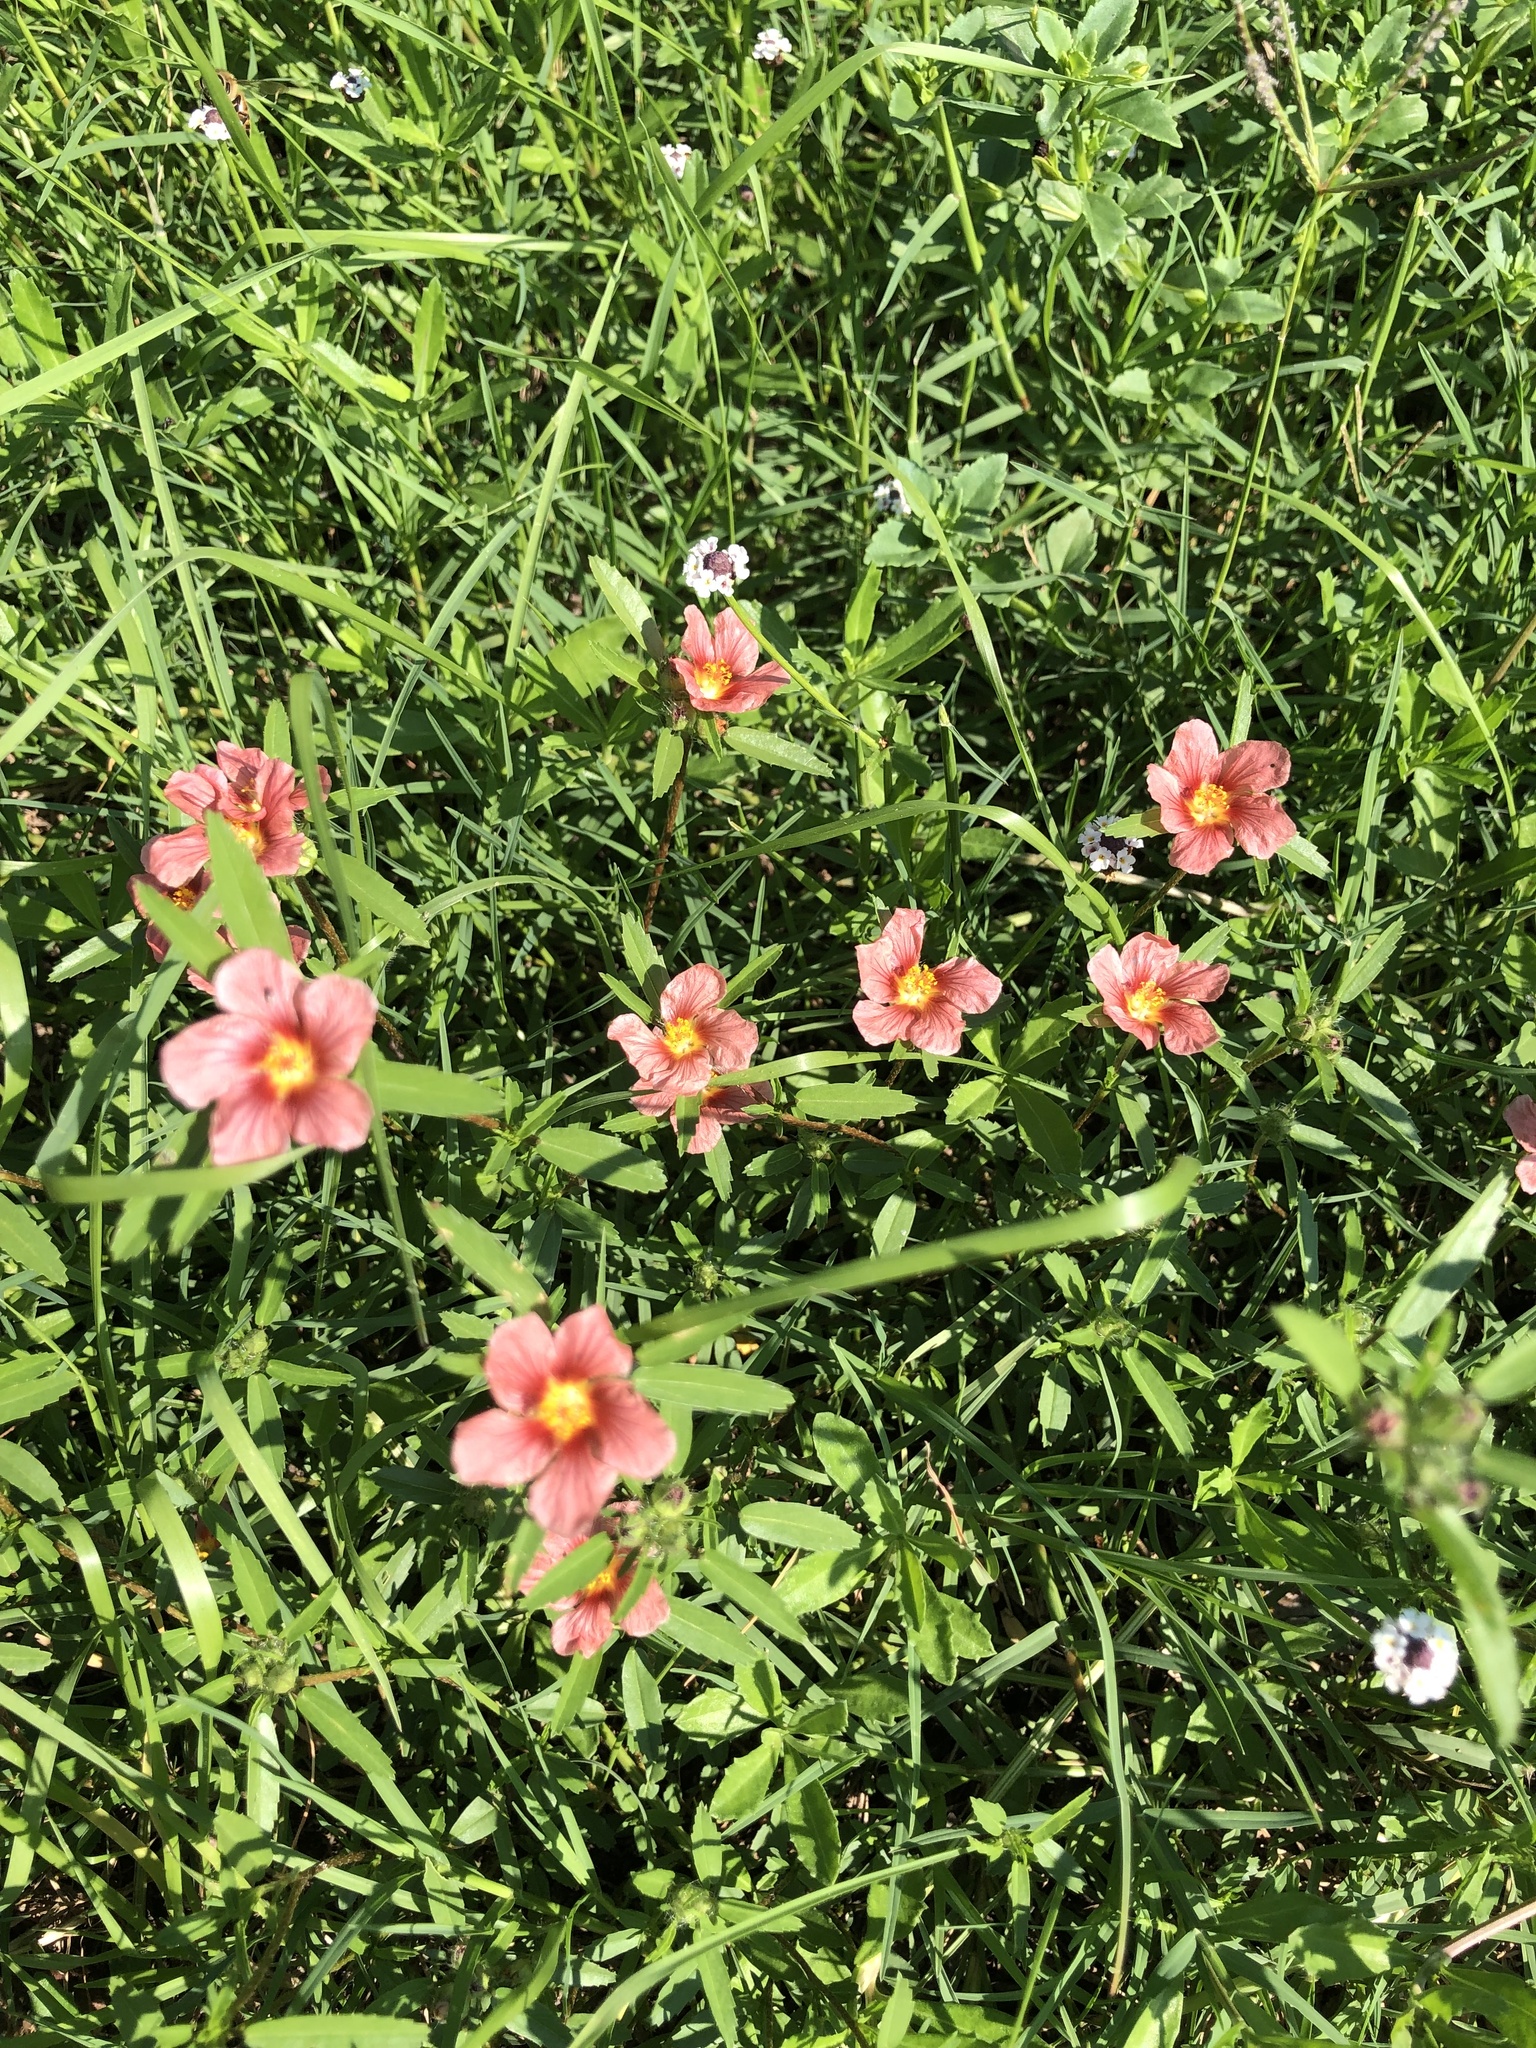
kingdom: Plantae
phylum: Tracheophyta
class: Magnoliopsida
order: Malvales
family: Malvaceae
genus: Sida
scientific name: Sida ciliaris
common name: Bracted fanpetals
